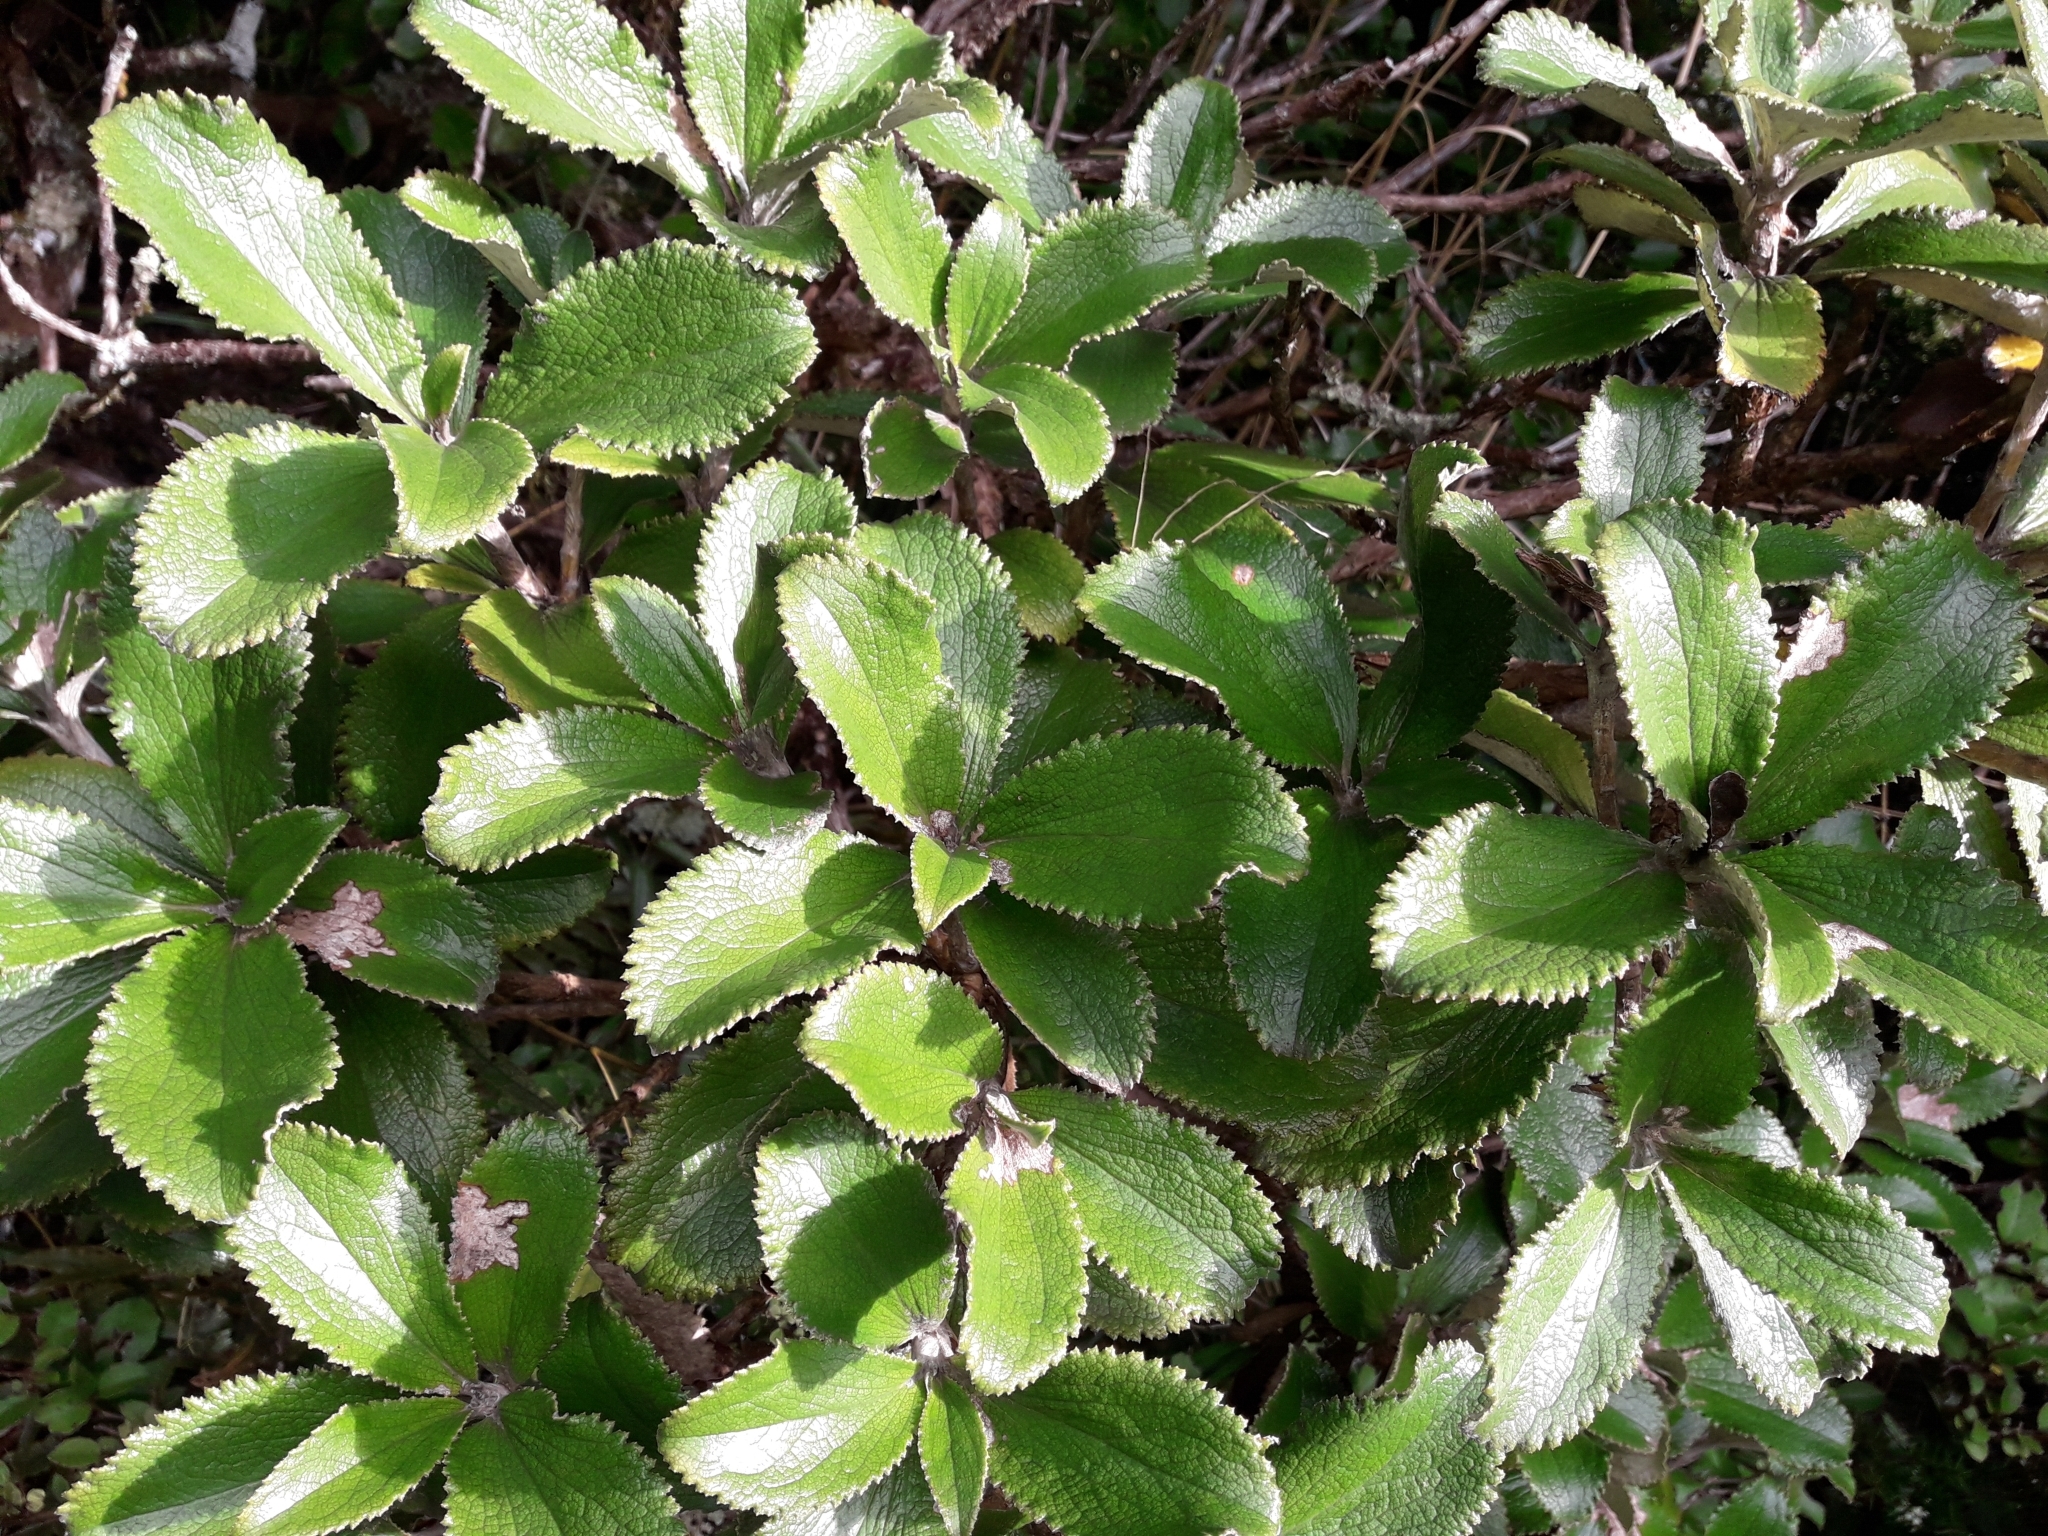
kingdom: Plantae
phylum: Tracheophyta
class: Magnoliopsida
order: Asterales
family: Asteraceae
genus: Macrolearia
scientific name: Macrolearia colensoi
